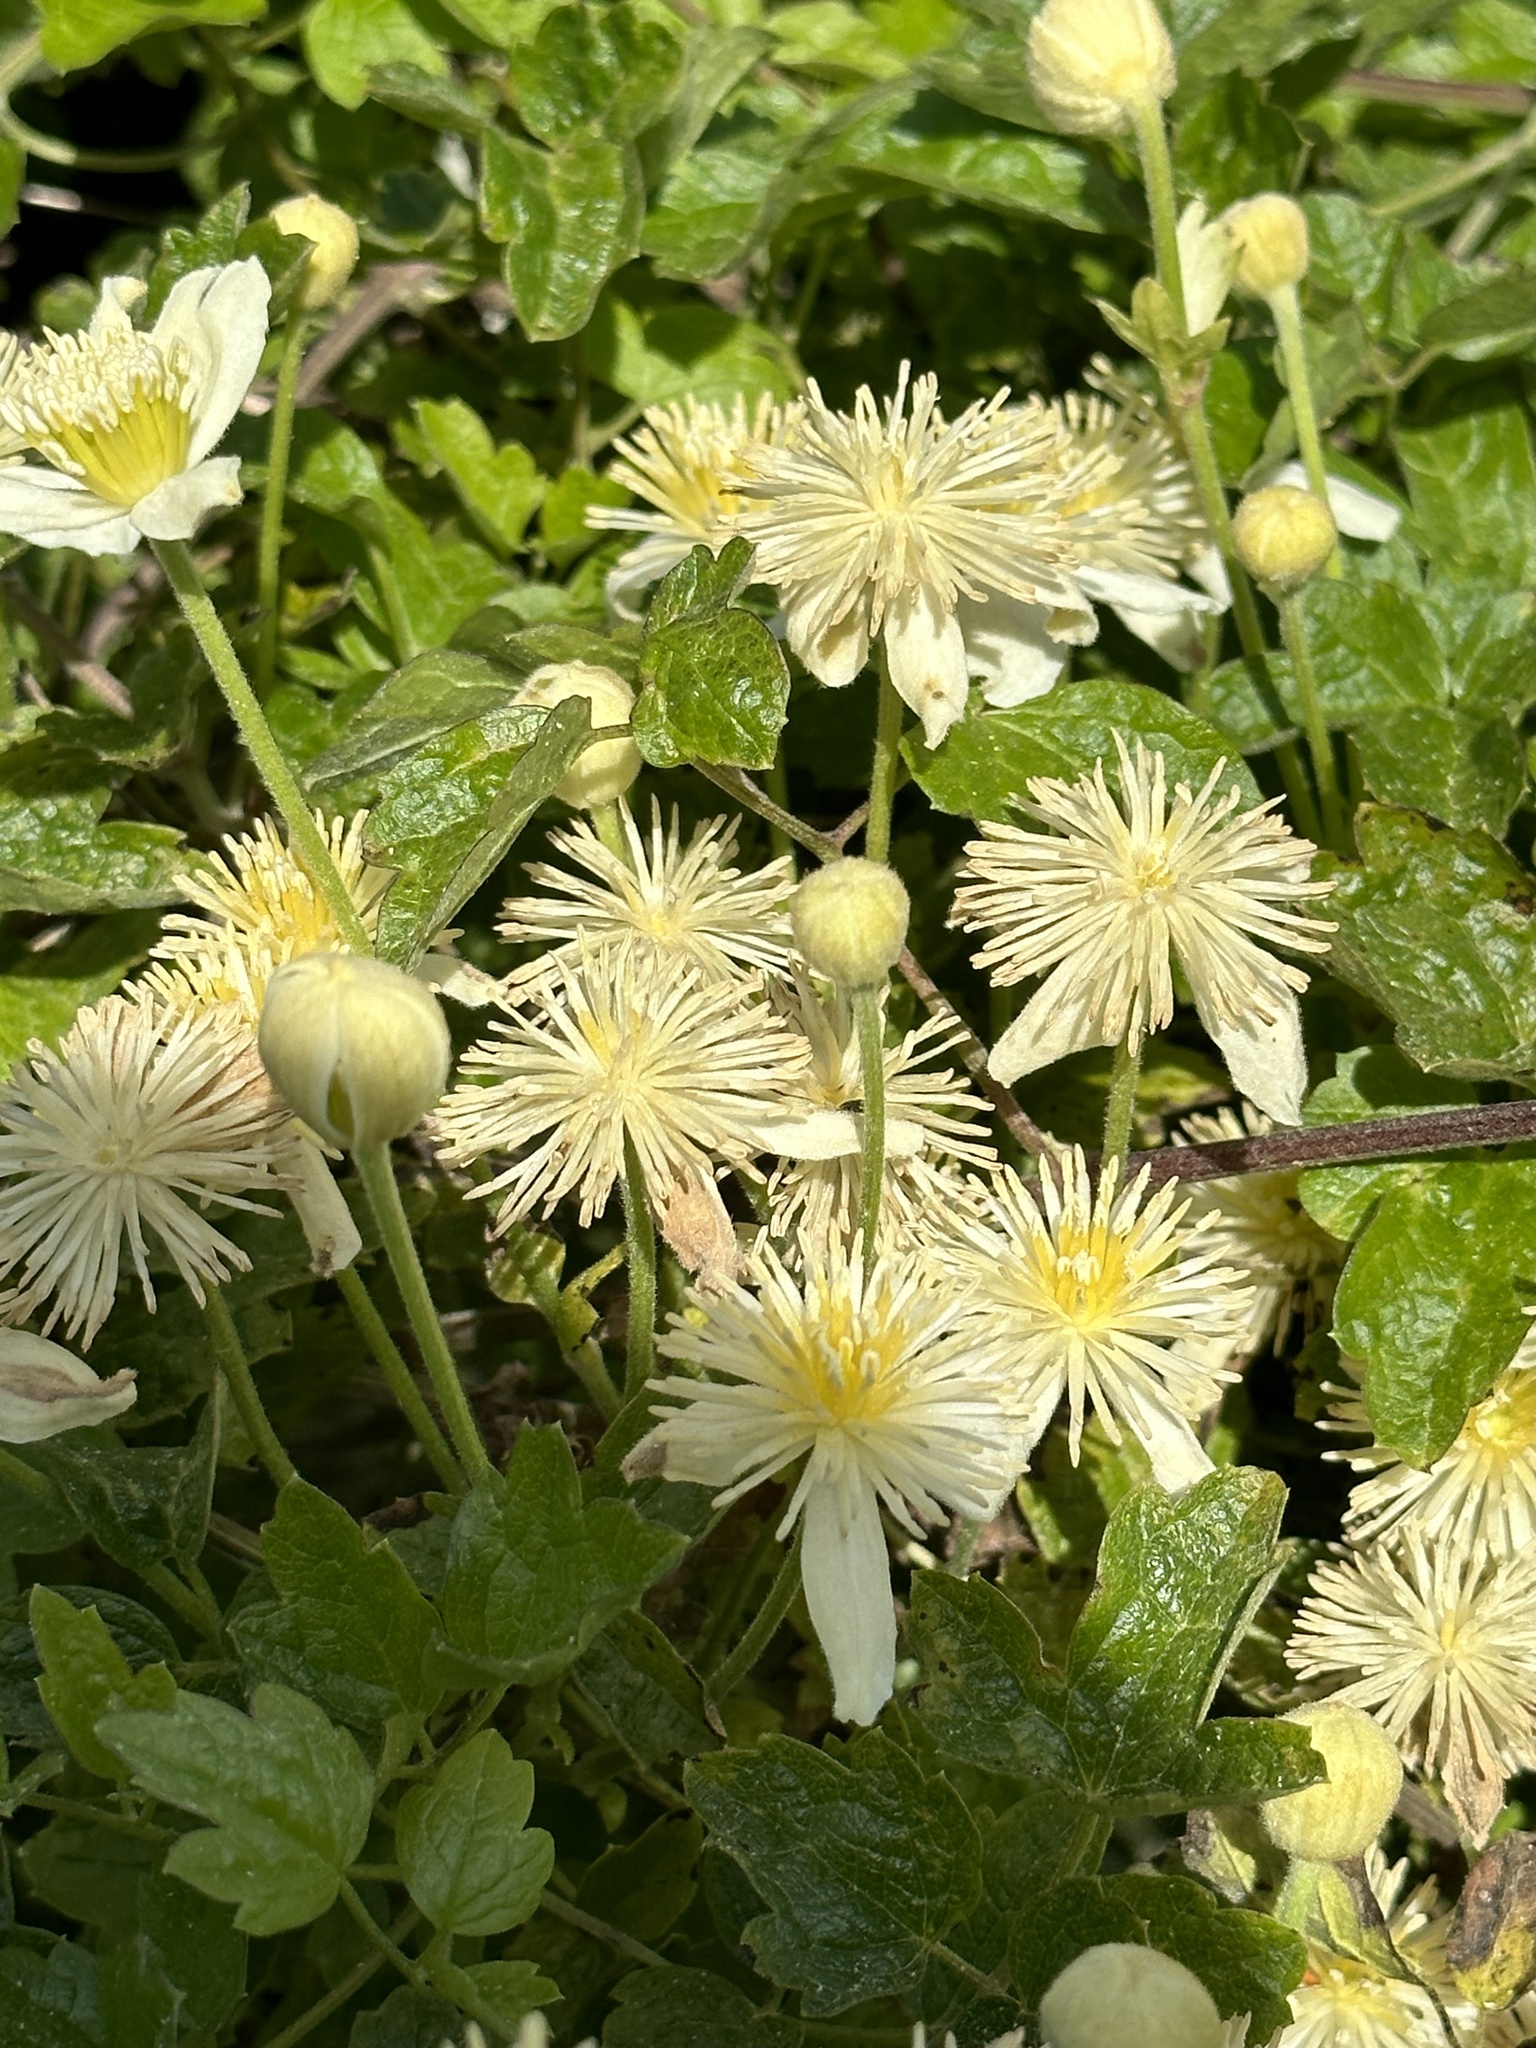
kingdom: Plantae
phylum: Tracheophyta
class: Magnoliopsida
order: Ranunculales
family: Ranunculaceae
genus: Clematis
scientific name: Clematis lasiantha
